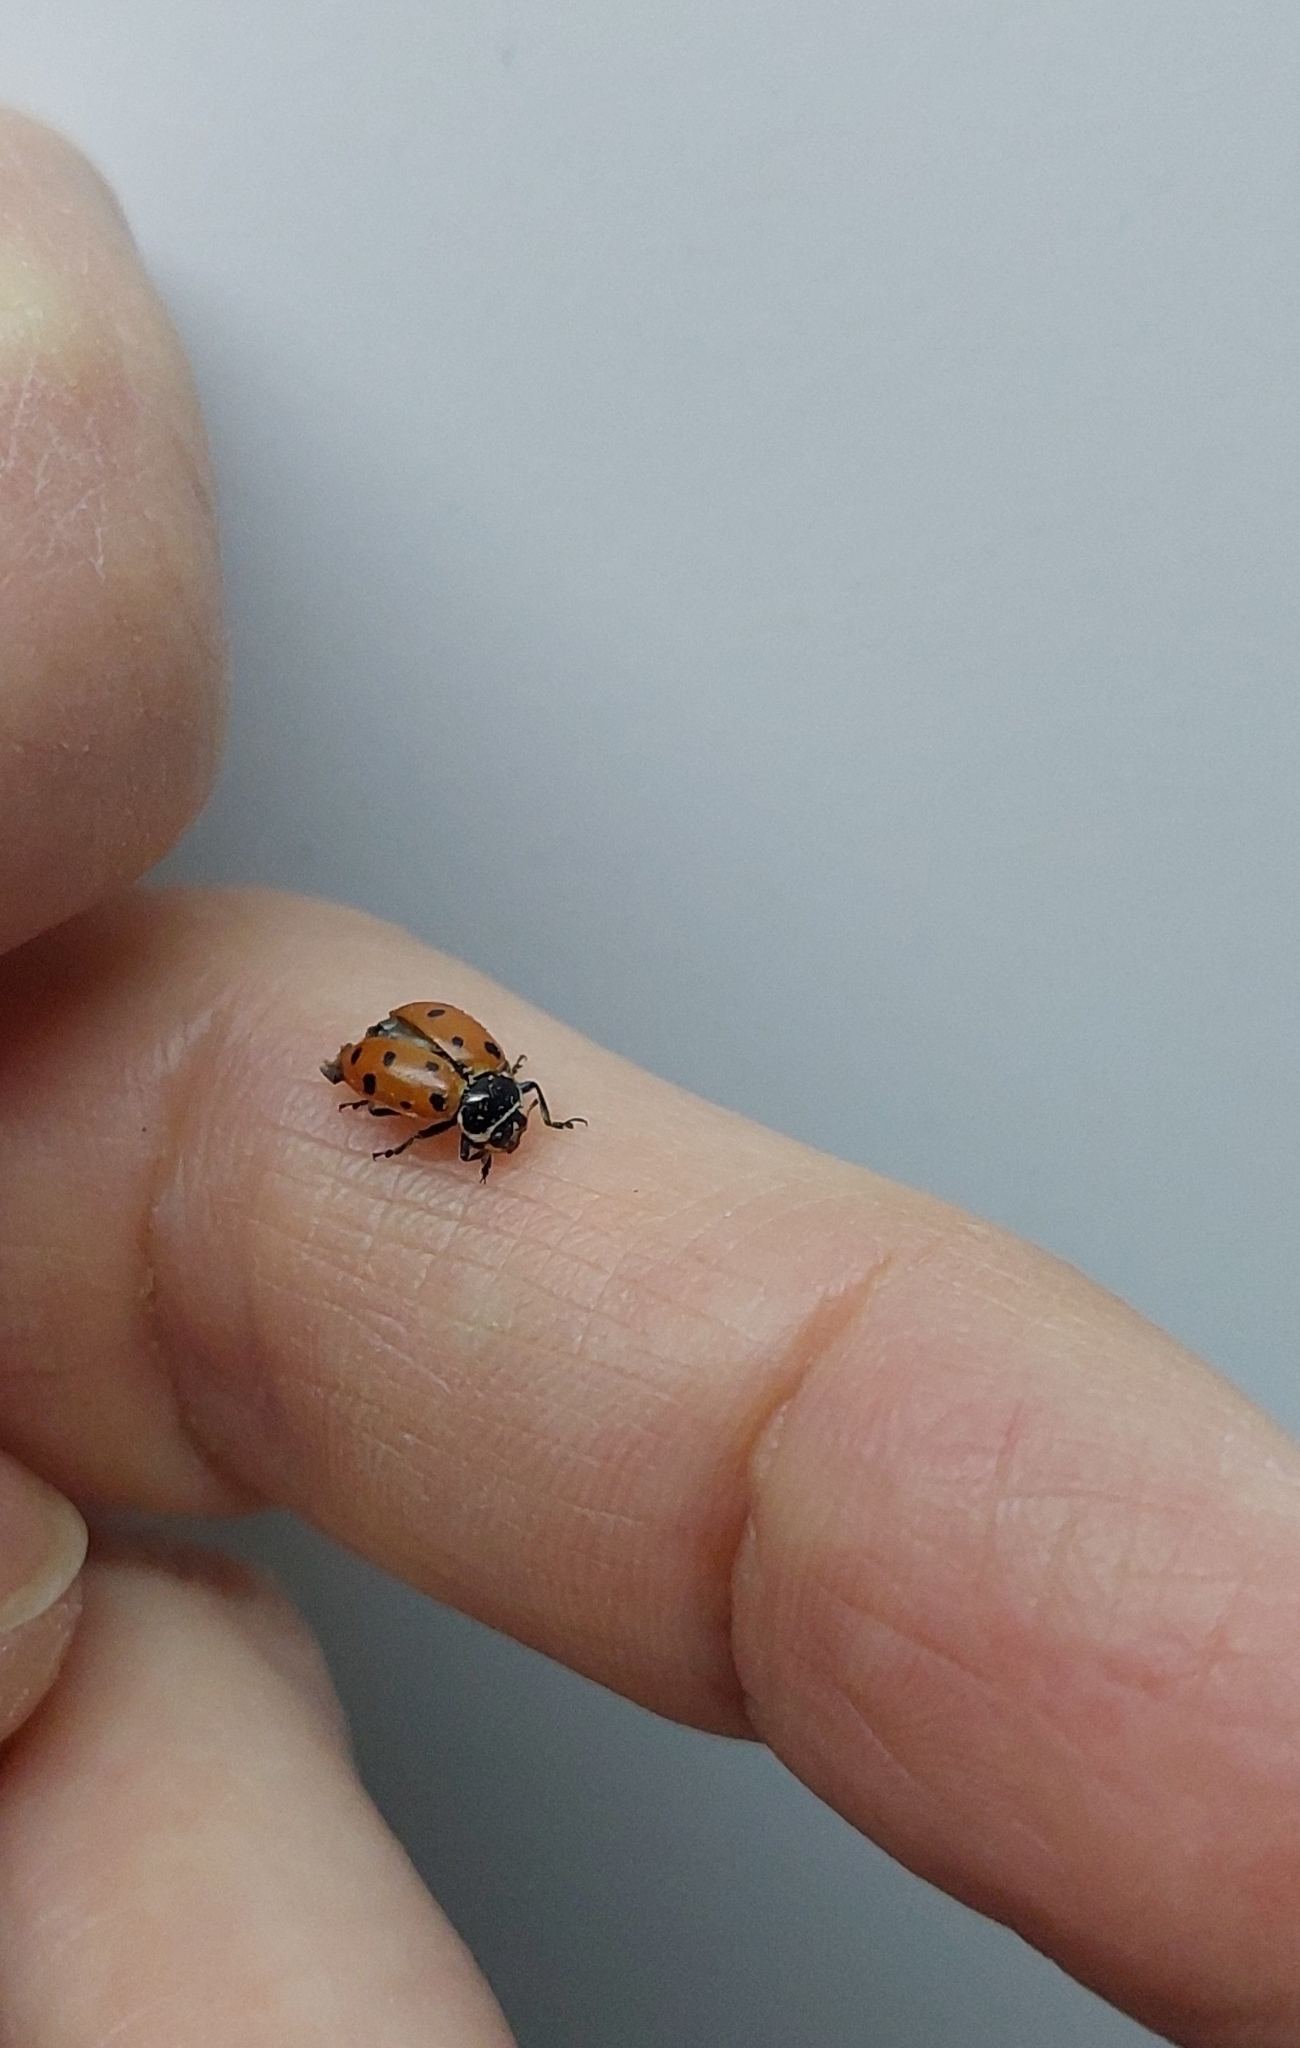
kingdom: Animalia
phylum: Arthropoda
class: Insecta
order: Coleoptera
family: Coccinellidae
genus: Hippodamia
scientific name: Hippodamia variegata
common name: Ladybird beetle
